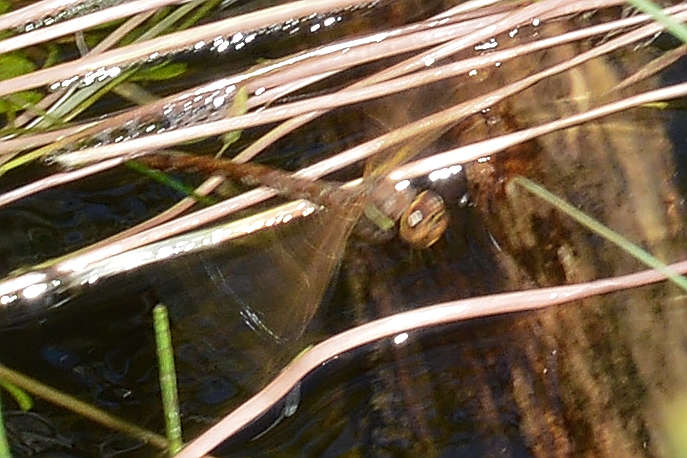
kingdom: Animalia
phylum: Arthropoda
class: Insecta
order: Odonata
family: Aeshnidae
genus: Aeshna
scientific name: Aeshna grandis
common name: Brown hawker
